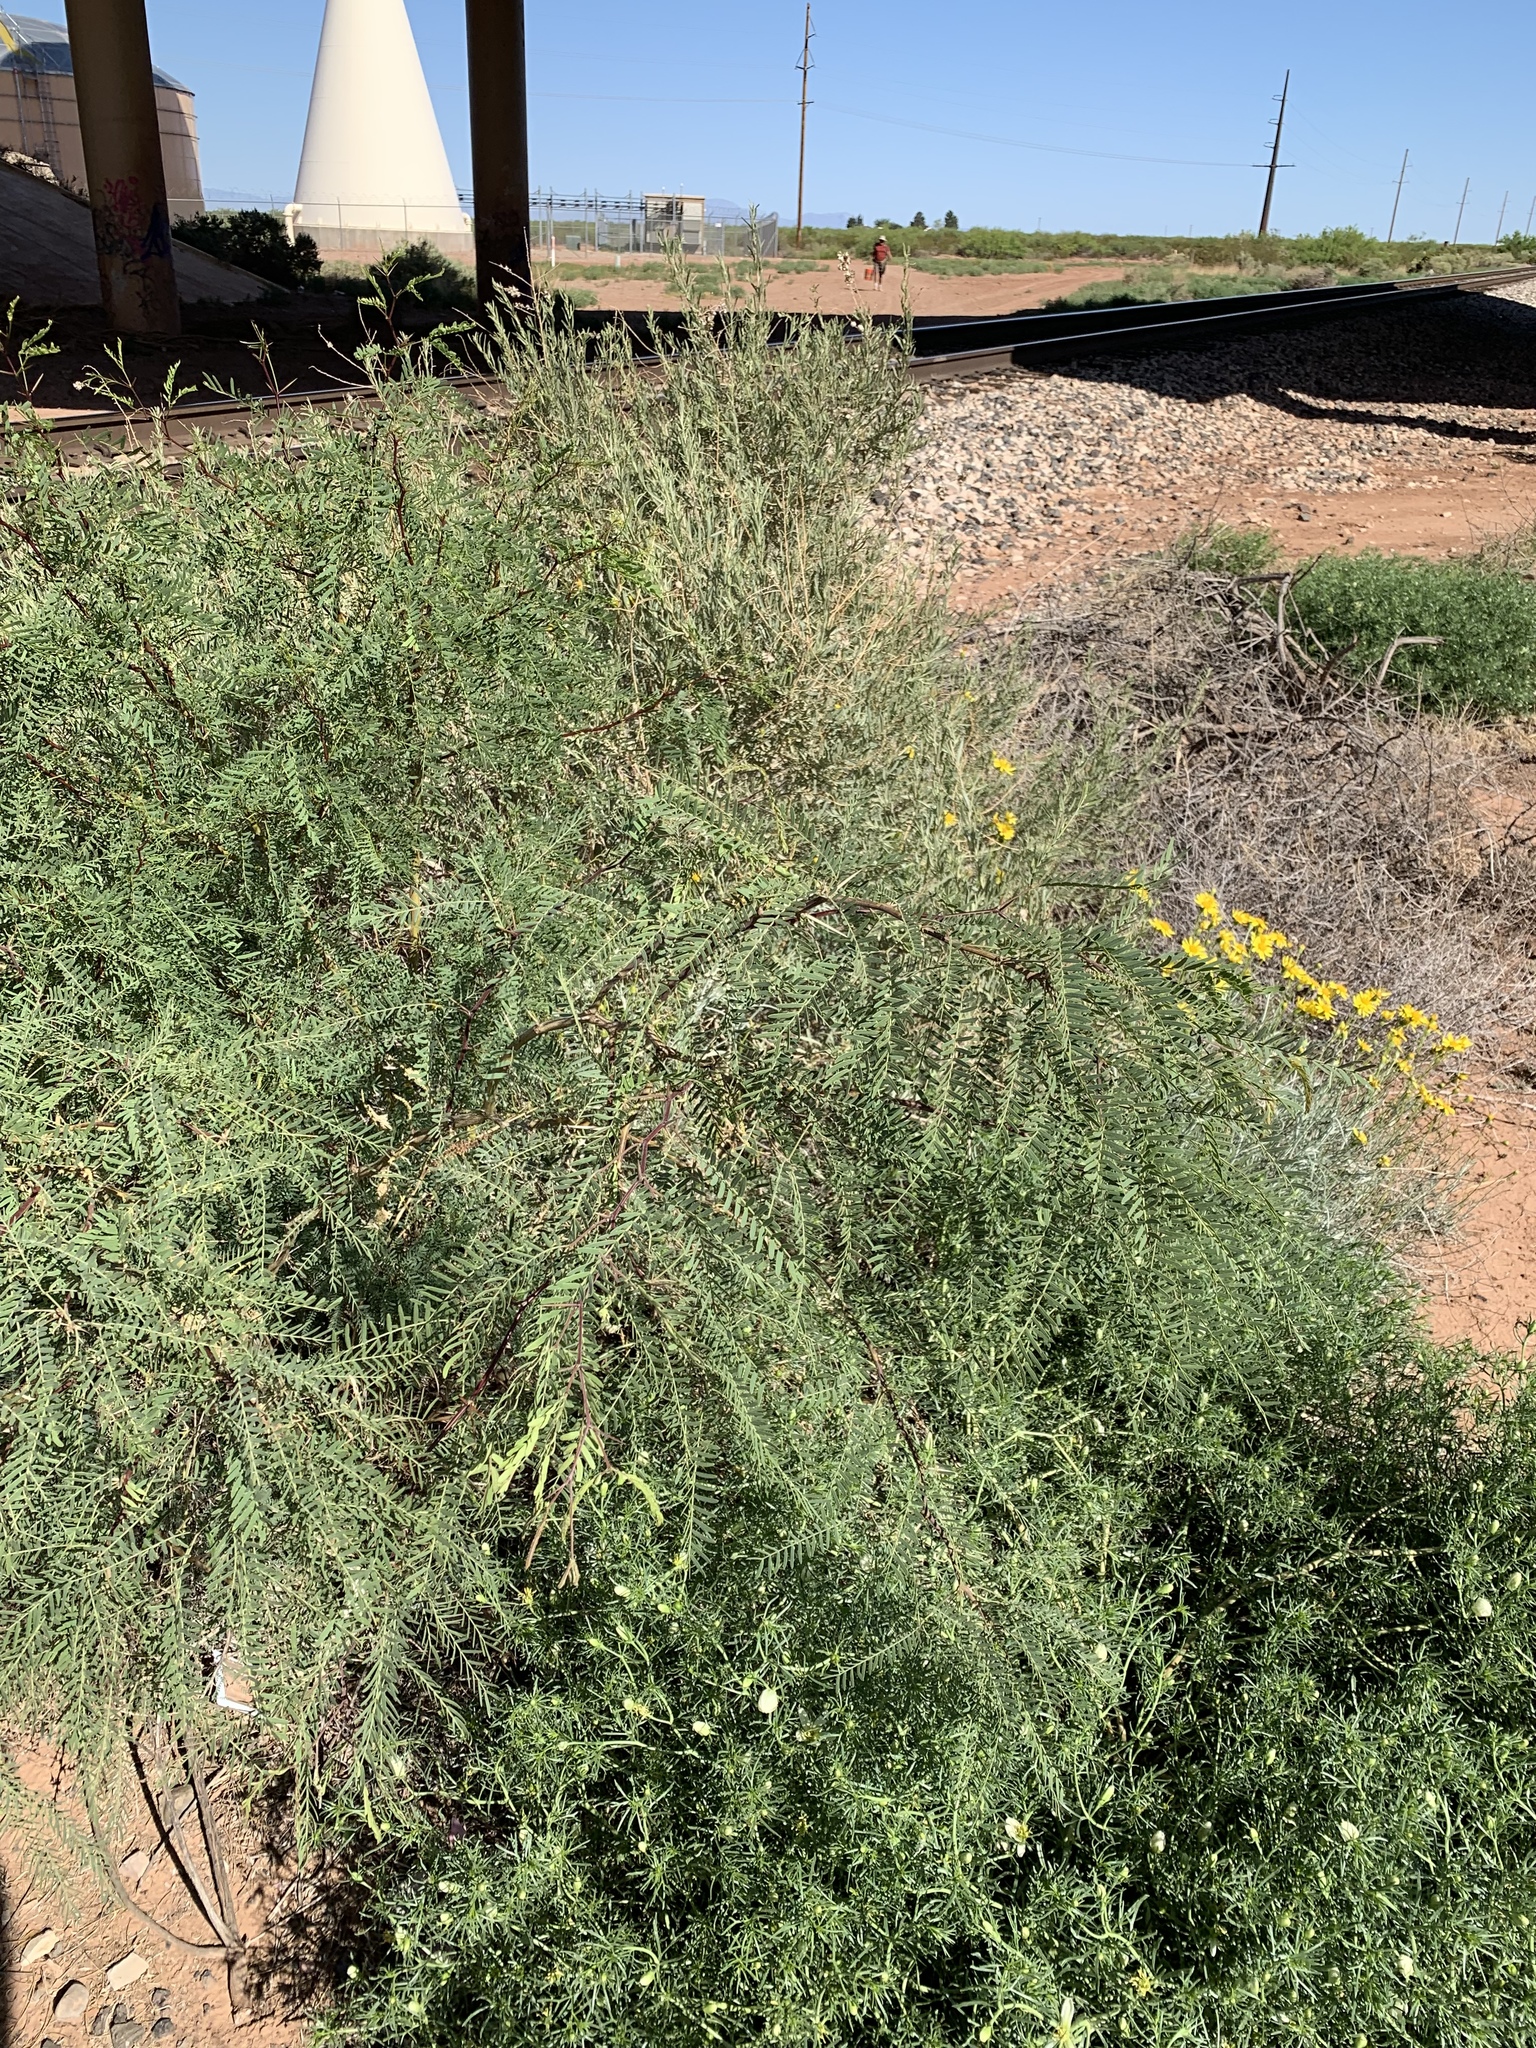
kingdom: Plantae
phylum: Tracheophyta
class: Magnoliopsida
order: Fabales
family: Fabaceae
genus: Prosopis
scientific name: Prosopis glandulosa
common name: Honey mesquite
